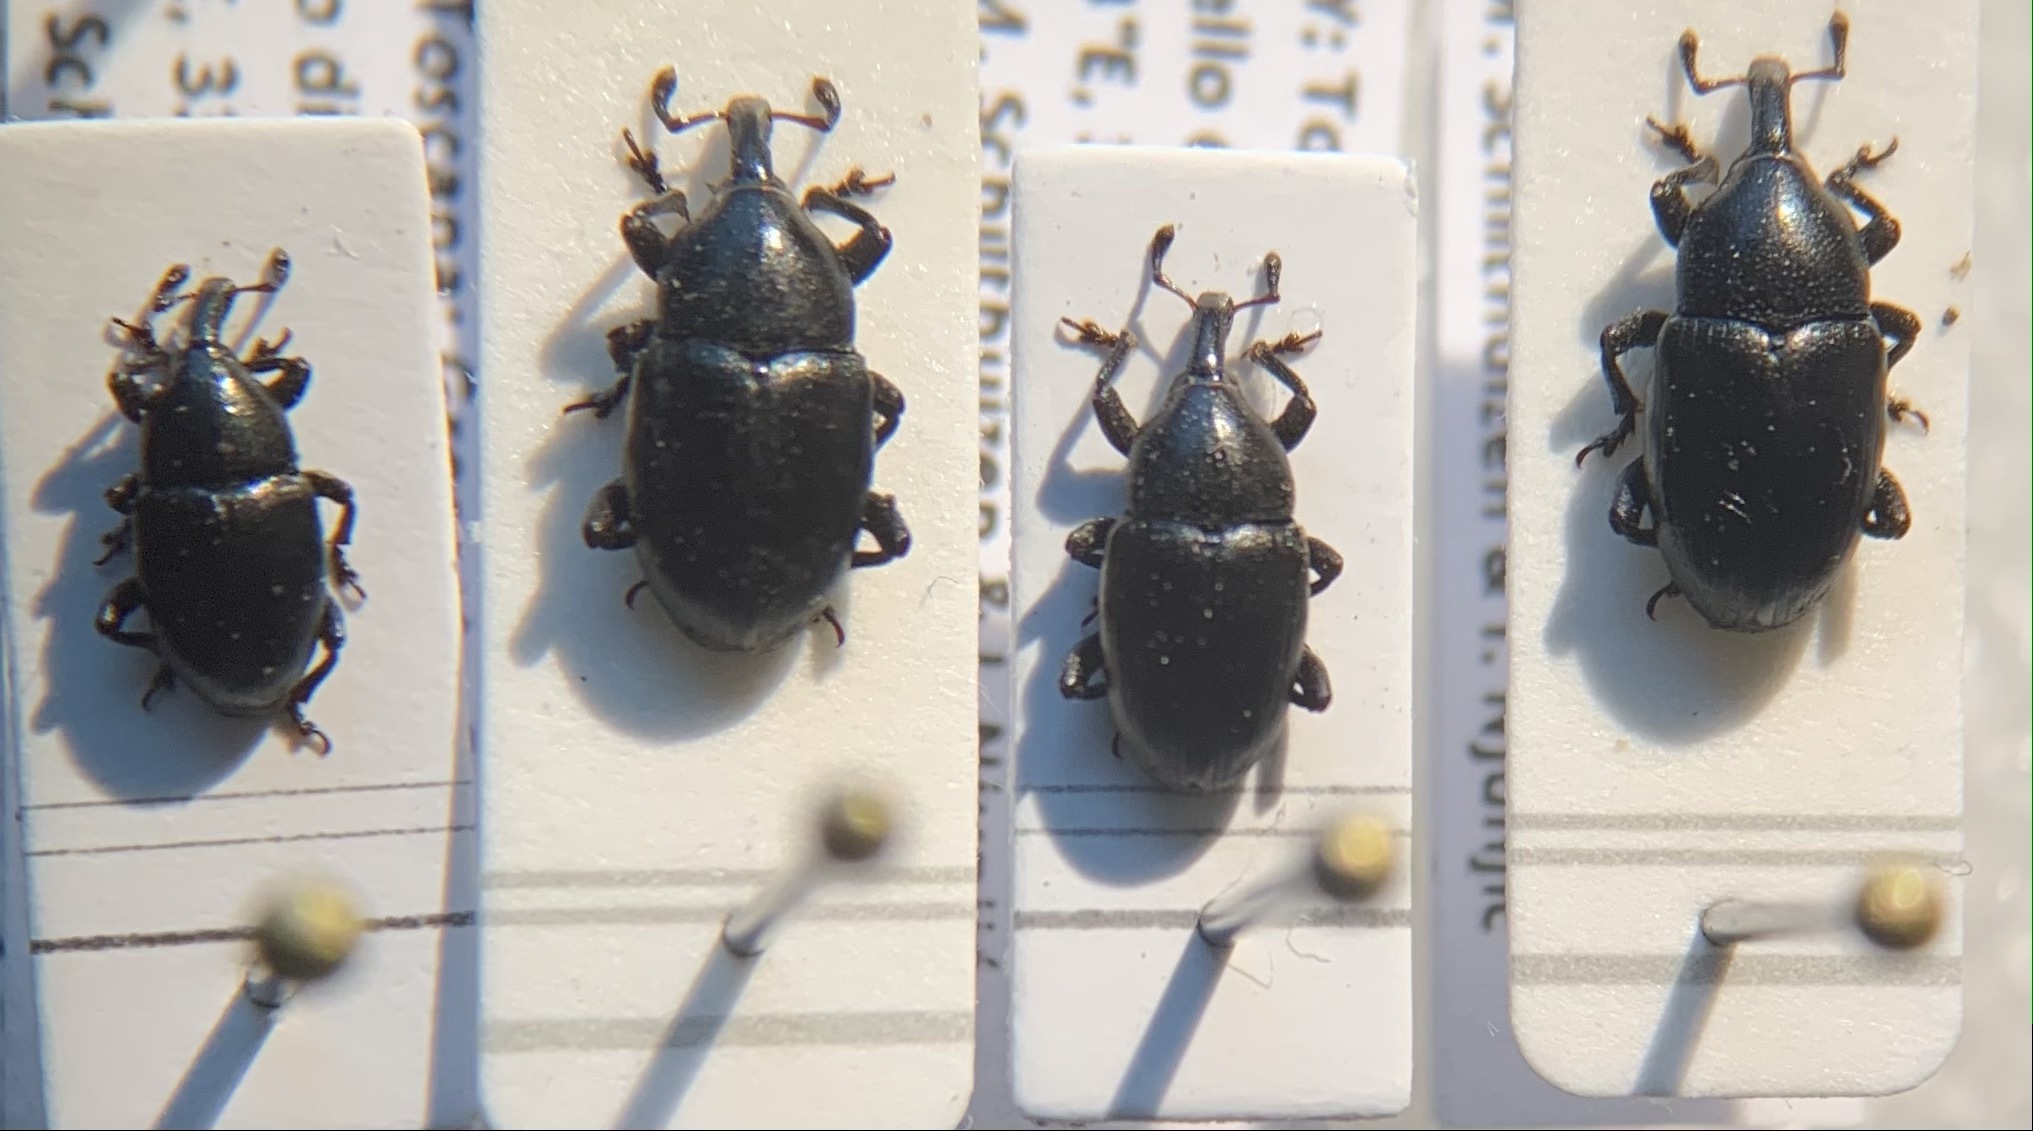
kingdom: Animalia
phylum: Arthropoda
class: Insecta
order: Coleoptera
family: Curculionidae
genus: Malvaevora
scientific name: Malvaevora timida
